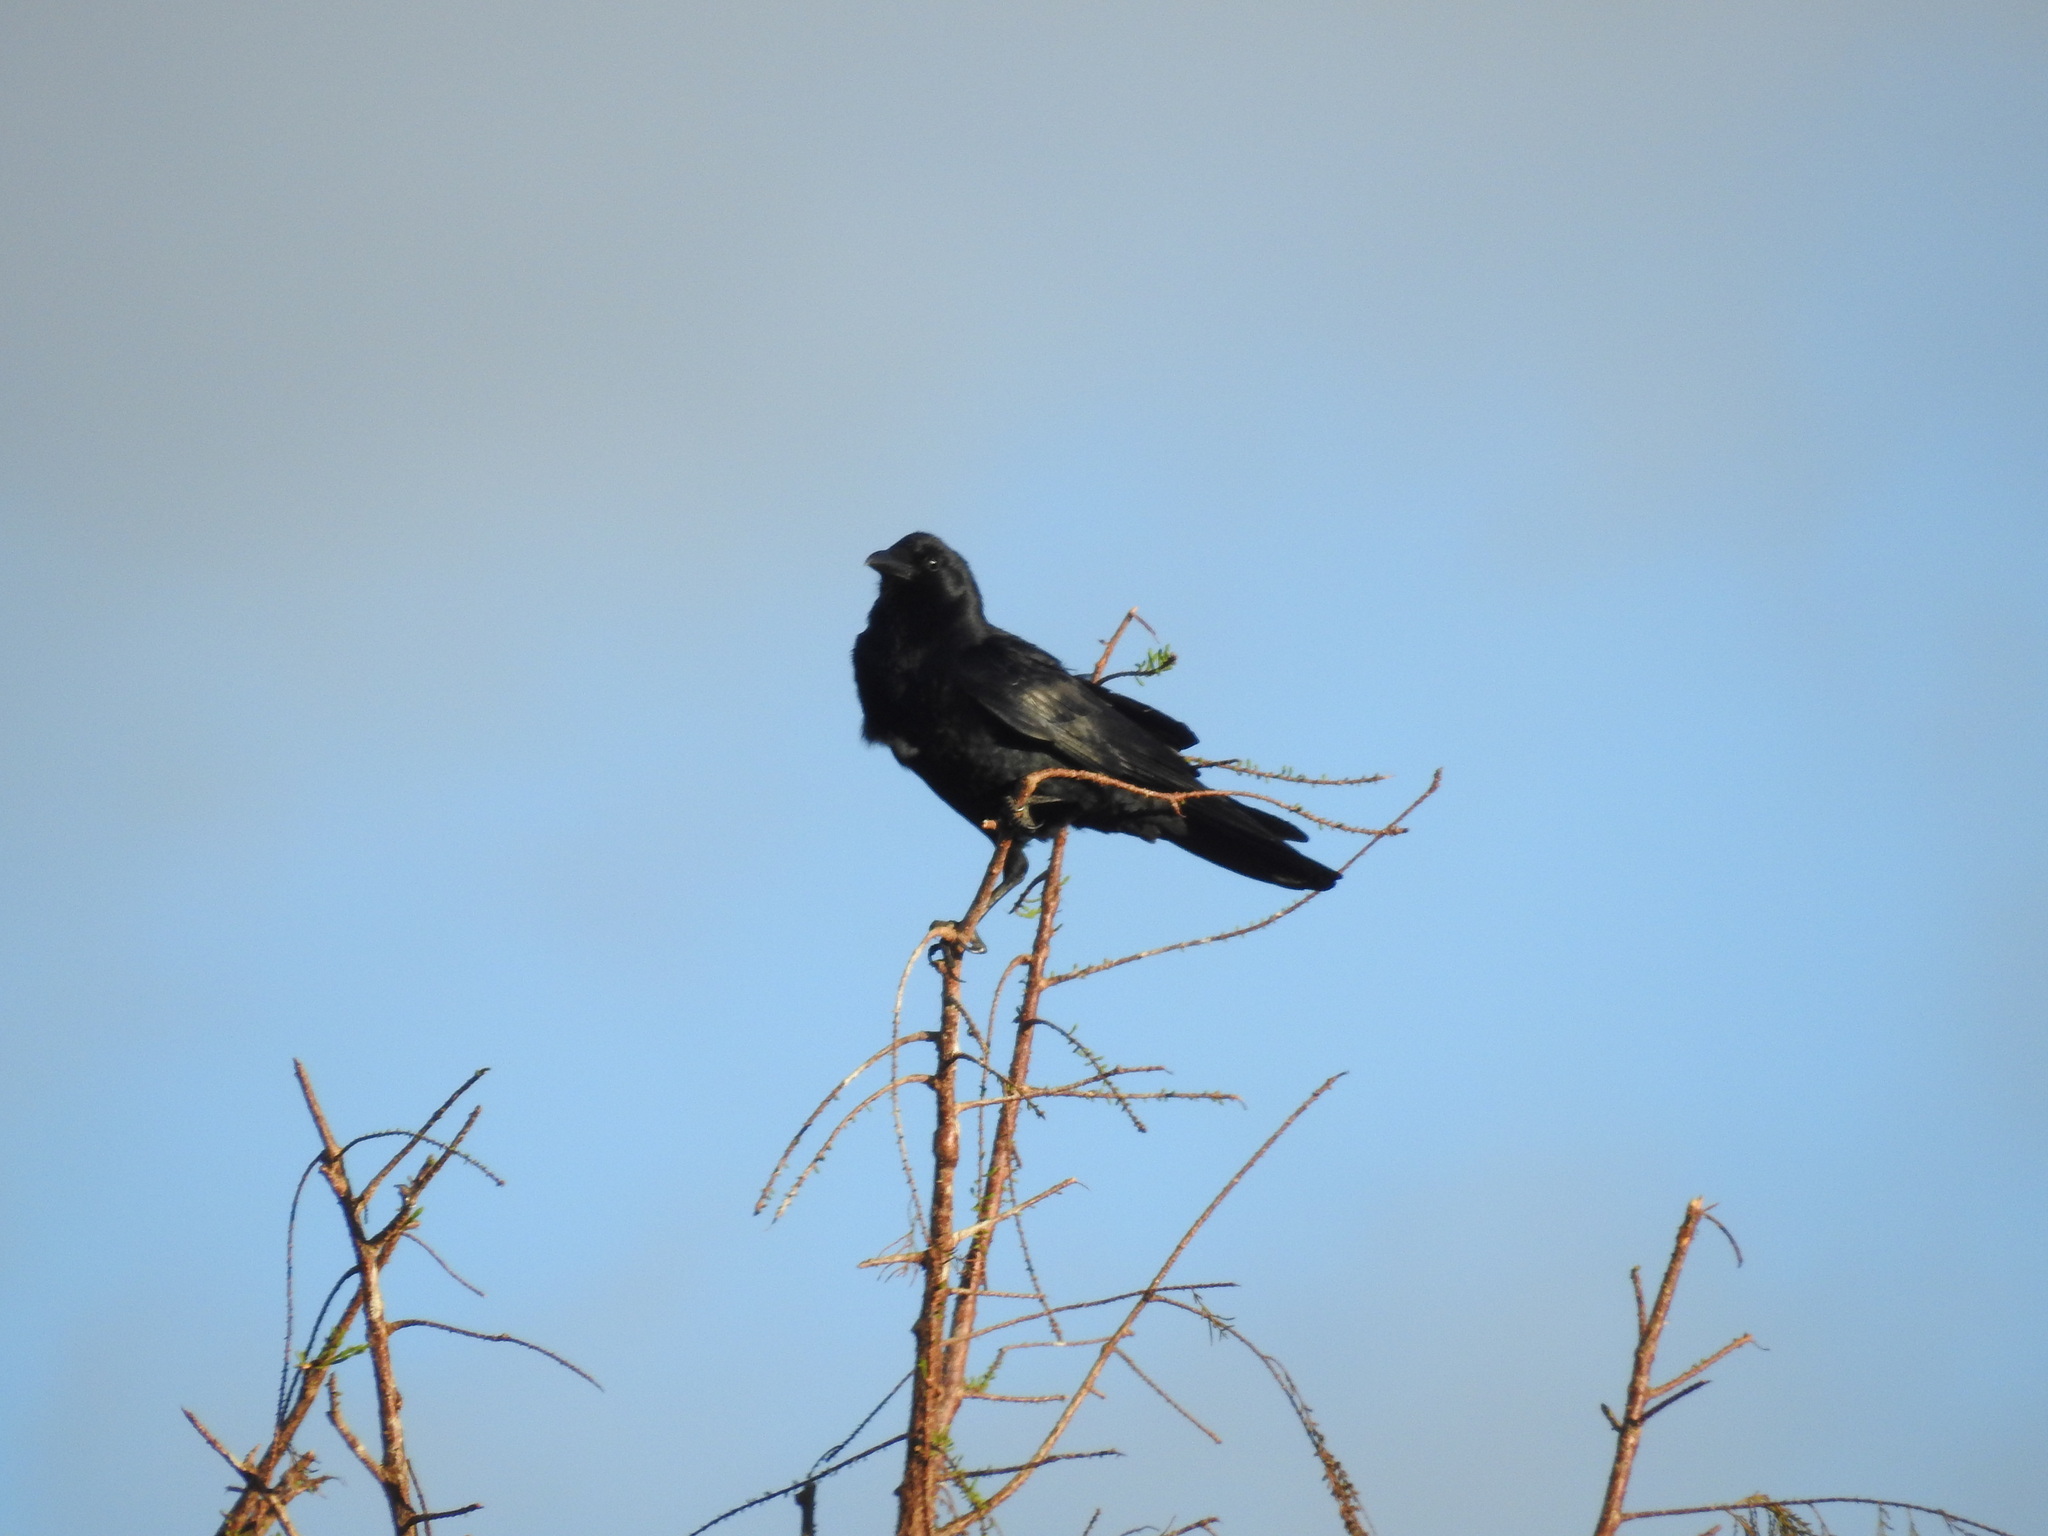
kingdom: Animalia
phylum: Chordata
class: Aves
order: Passeriformes
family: Corvidae
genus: Corvus
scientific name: Corvus
